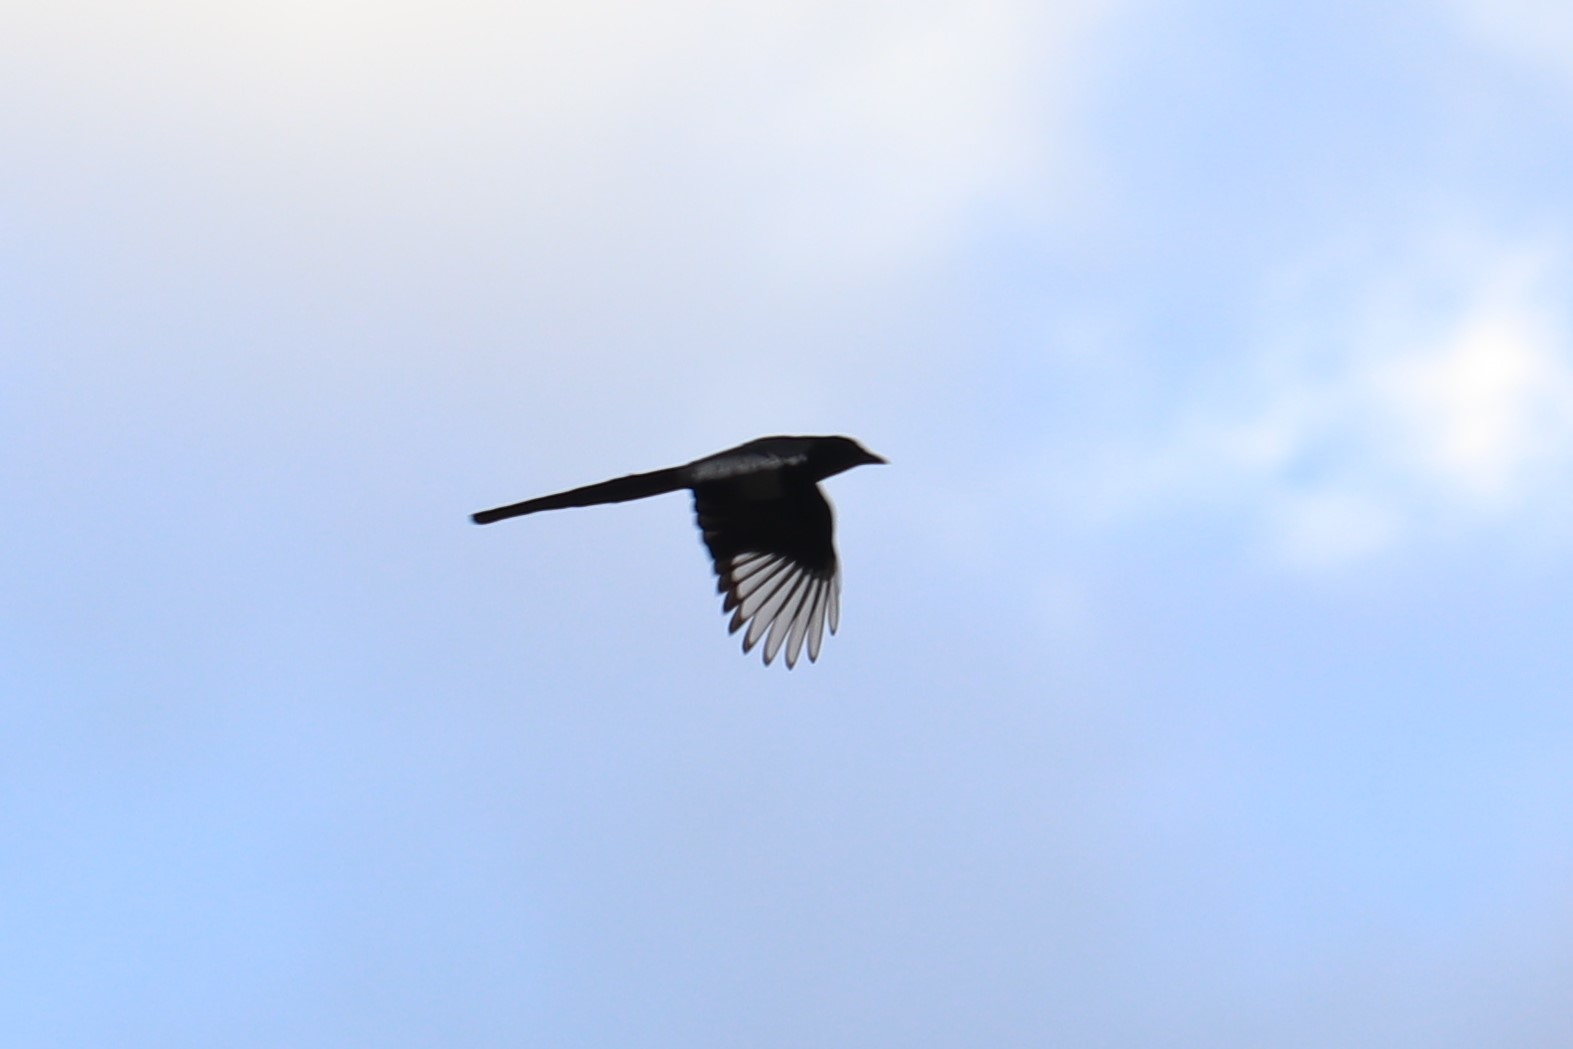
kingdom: Animalia
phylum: Chordata
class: Aves
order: Passeriformes
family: Corvidae
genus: Pica
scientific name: Pica hudsonia
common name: Black-billed magpie
